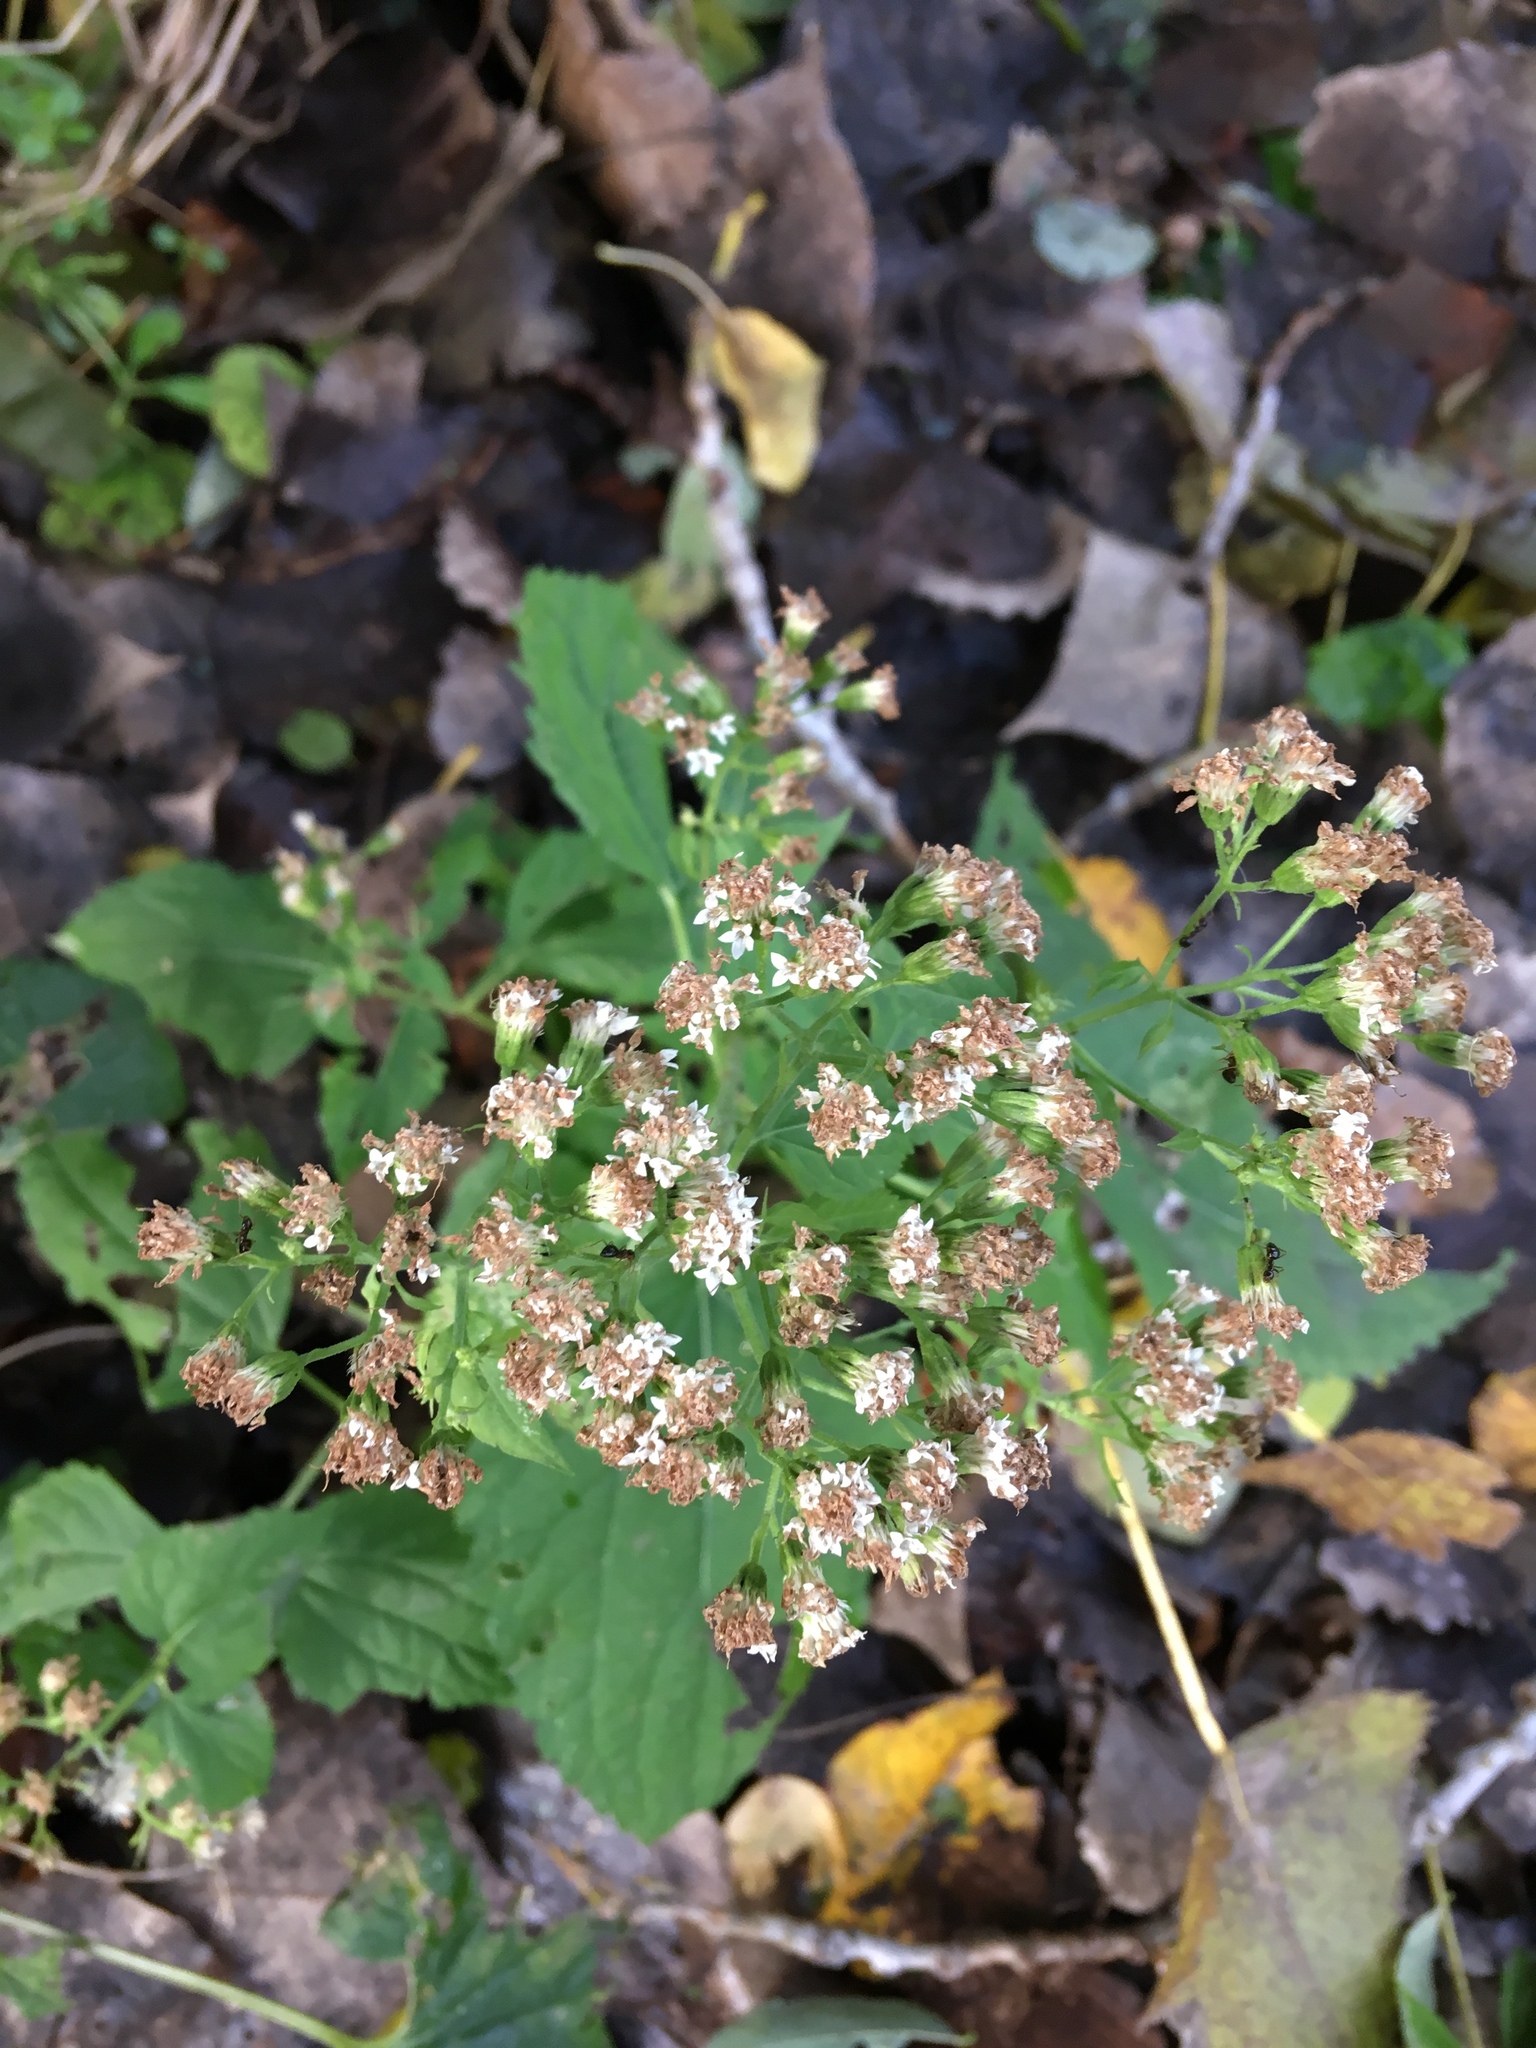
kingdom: Plantae
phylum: Tracheophyta
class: Magnoliopsida
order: Asterales
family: Asteraceae
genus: Ageratina
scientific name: Ageratina altissima
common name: White snakeroot
